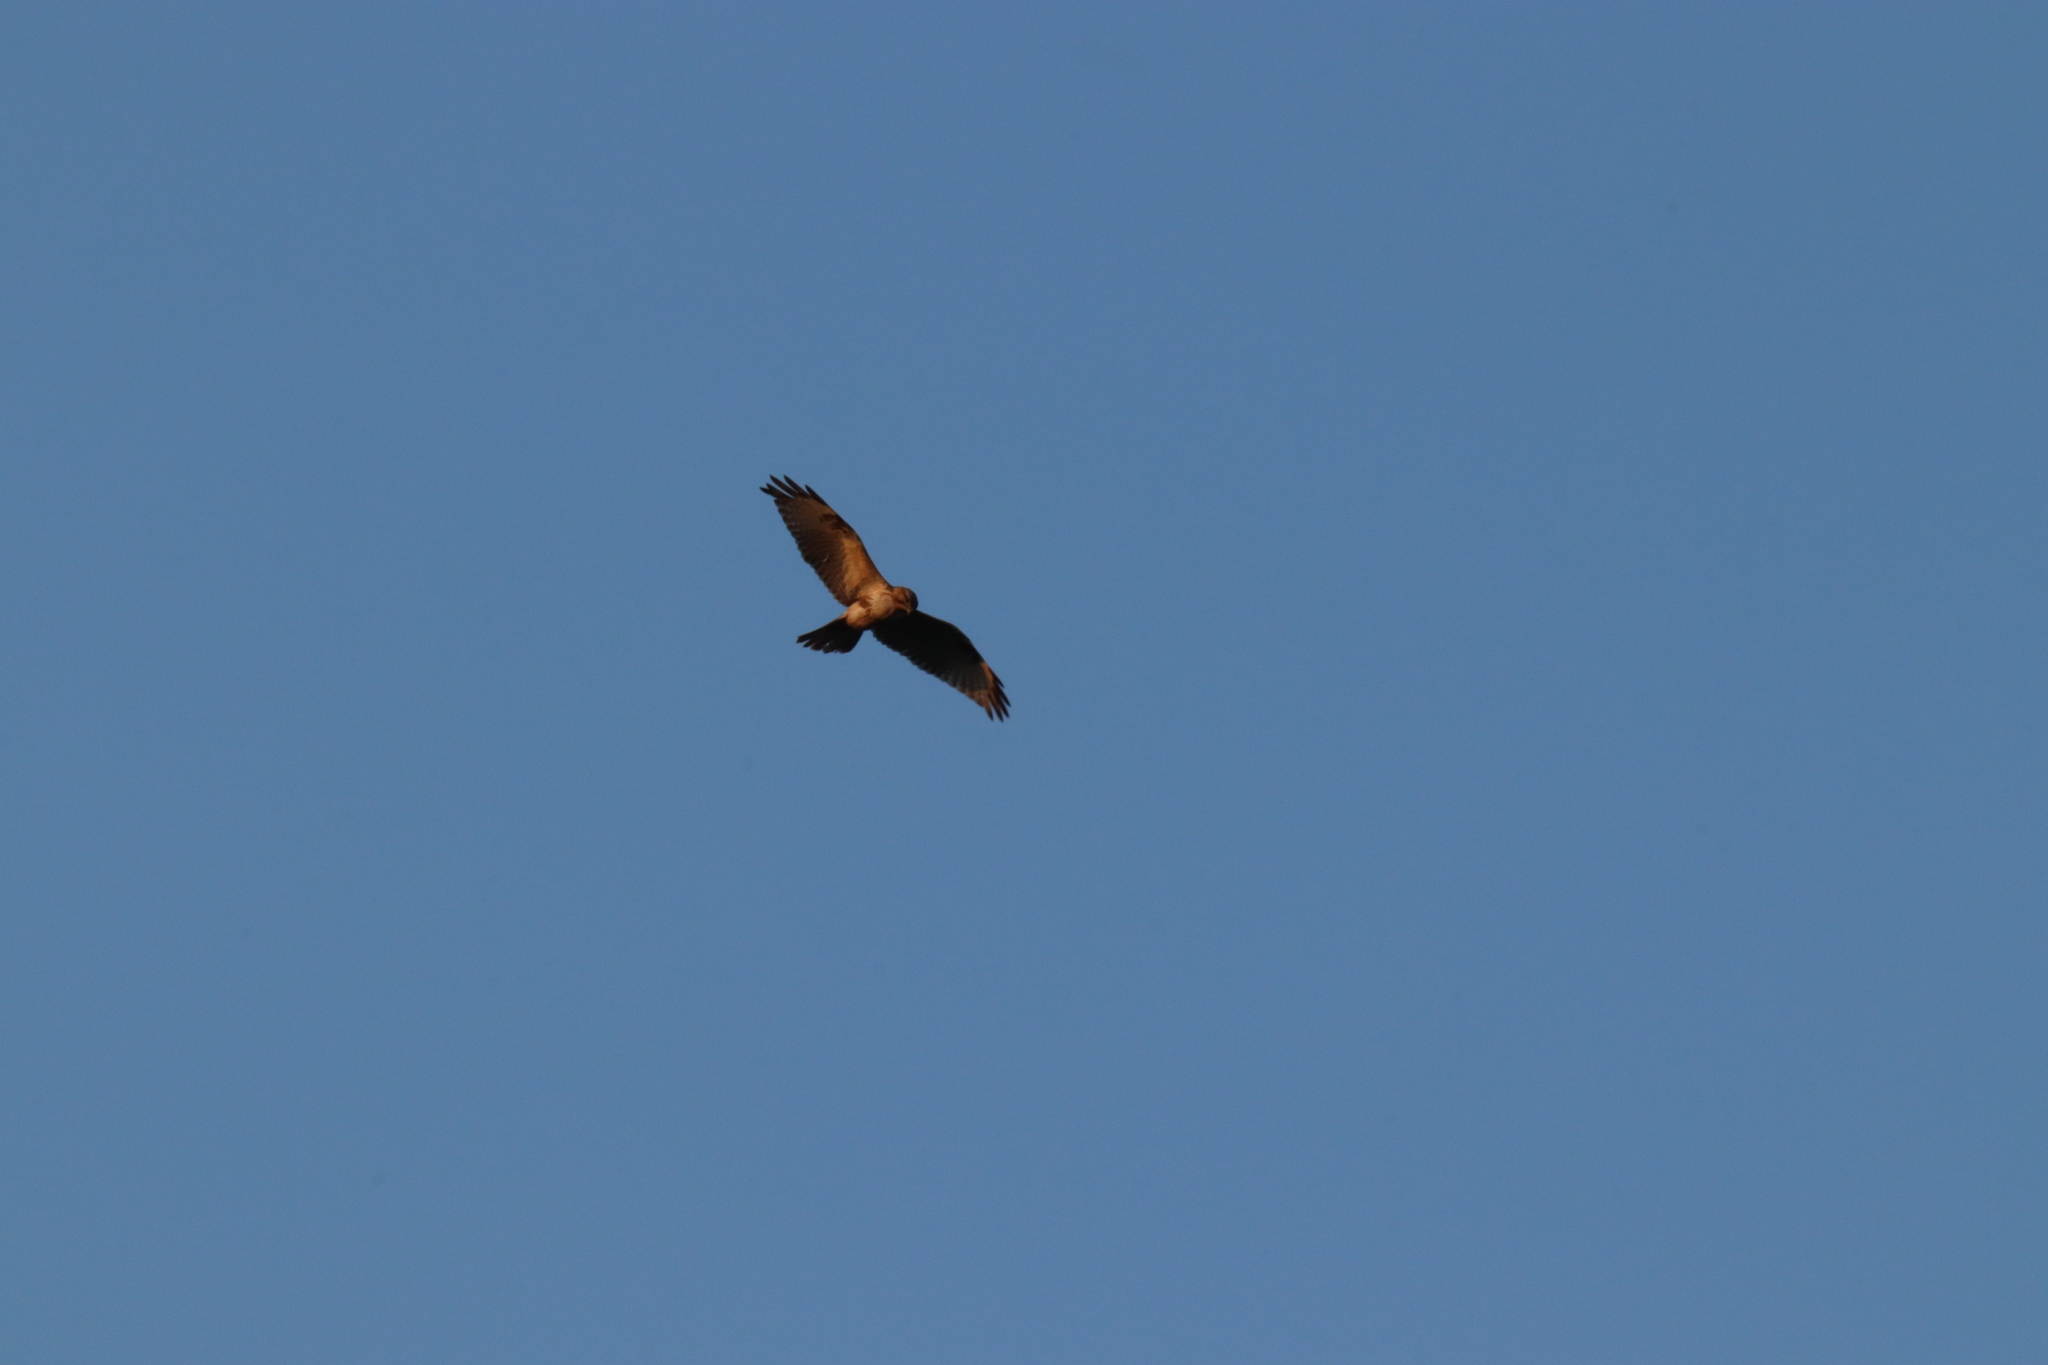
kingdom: Animalia
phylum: Chordata
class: Aves
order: Accipitriformes
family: Accipitridae
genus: Buteo
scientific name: Buteo japonicus
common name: Eastern buzzard
